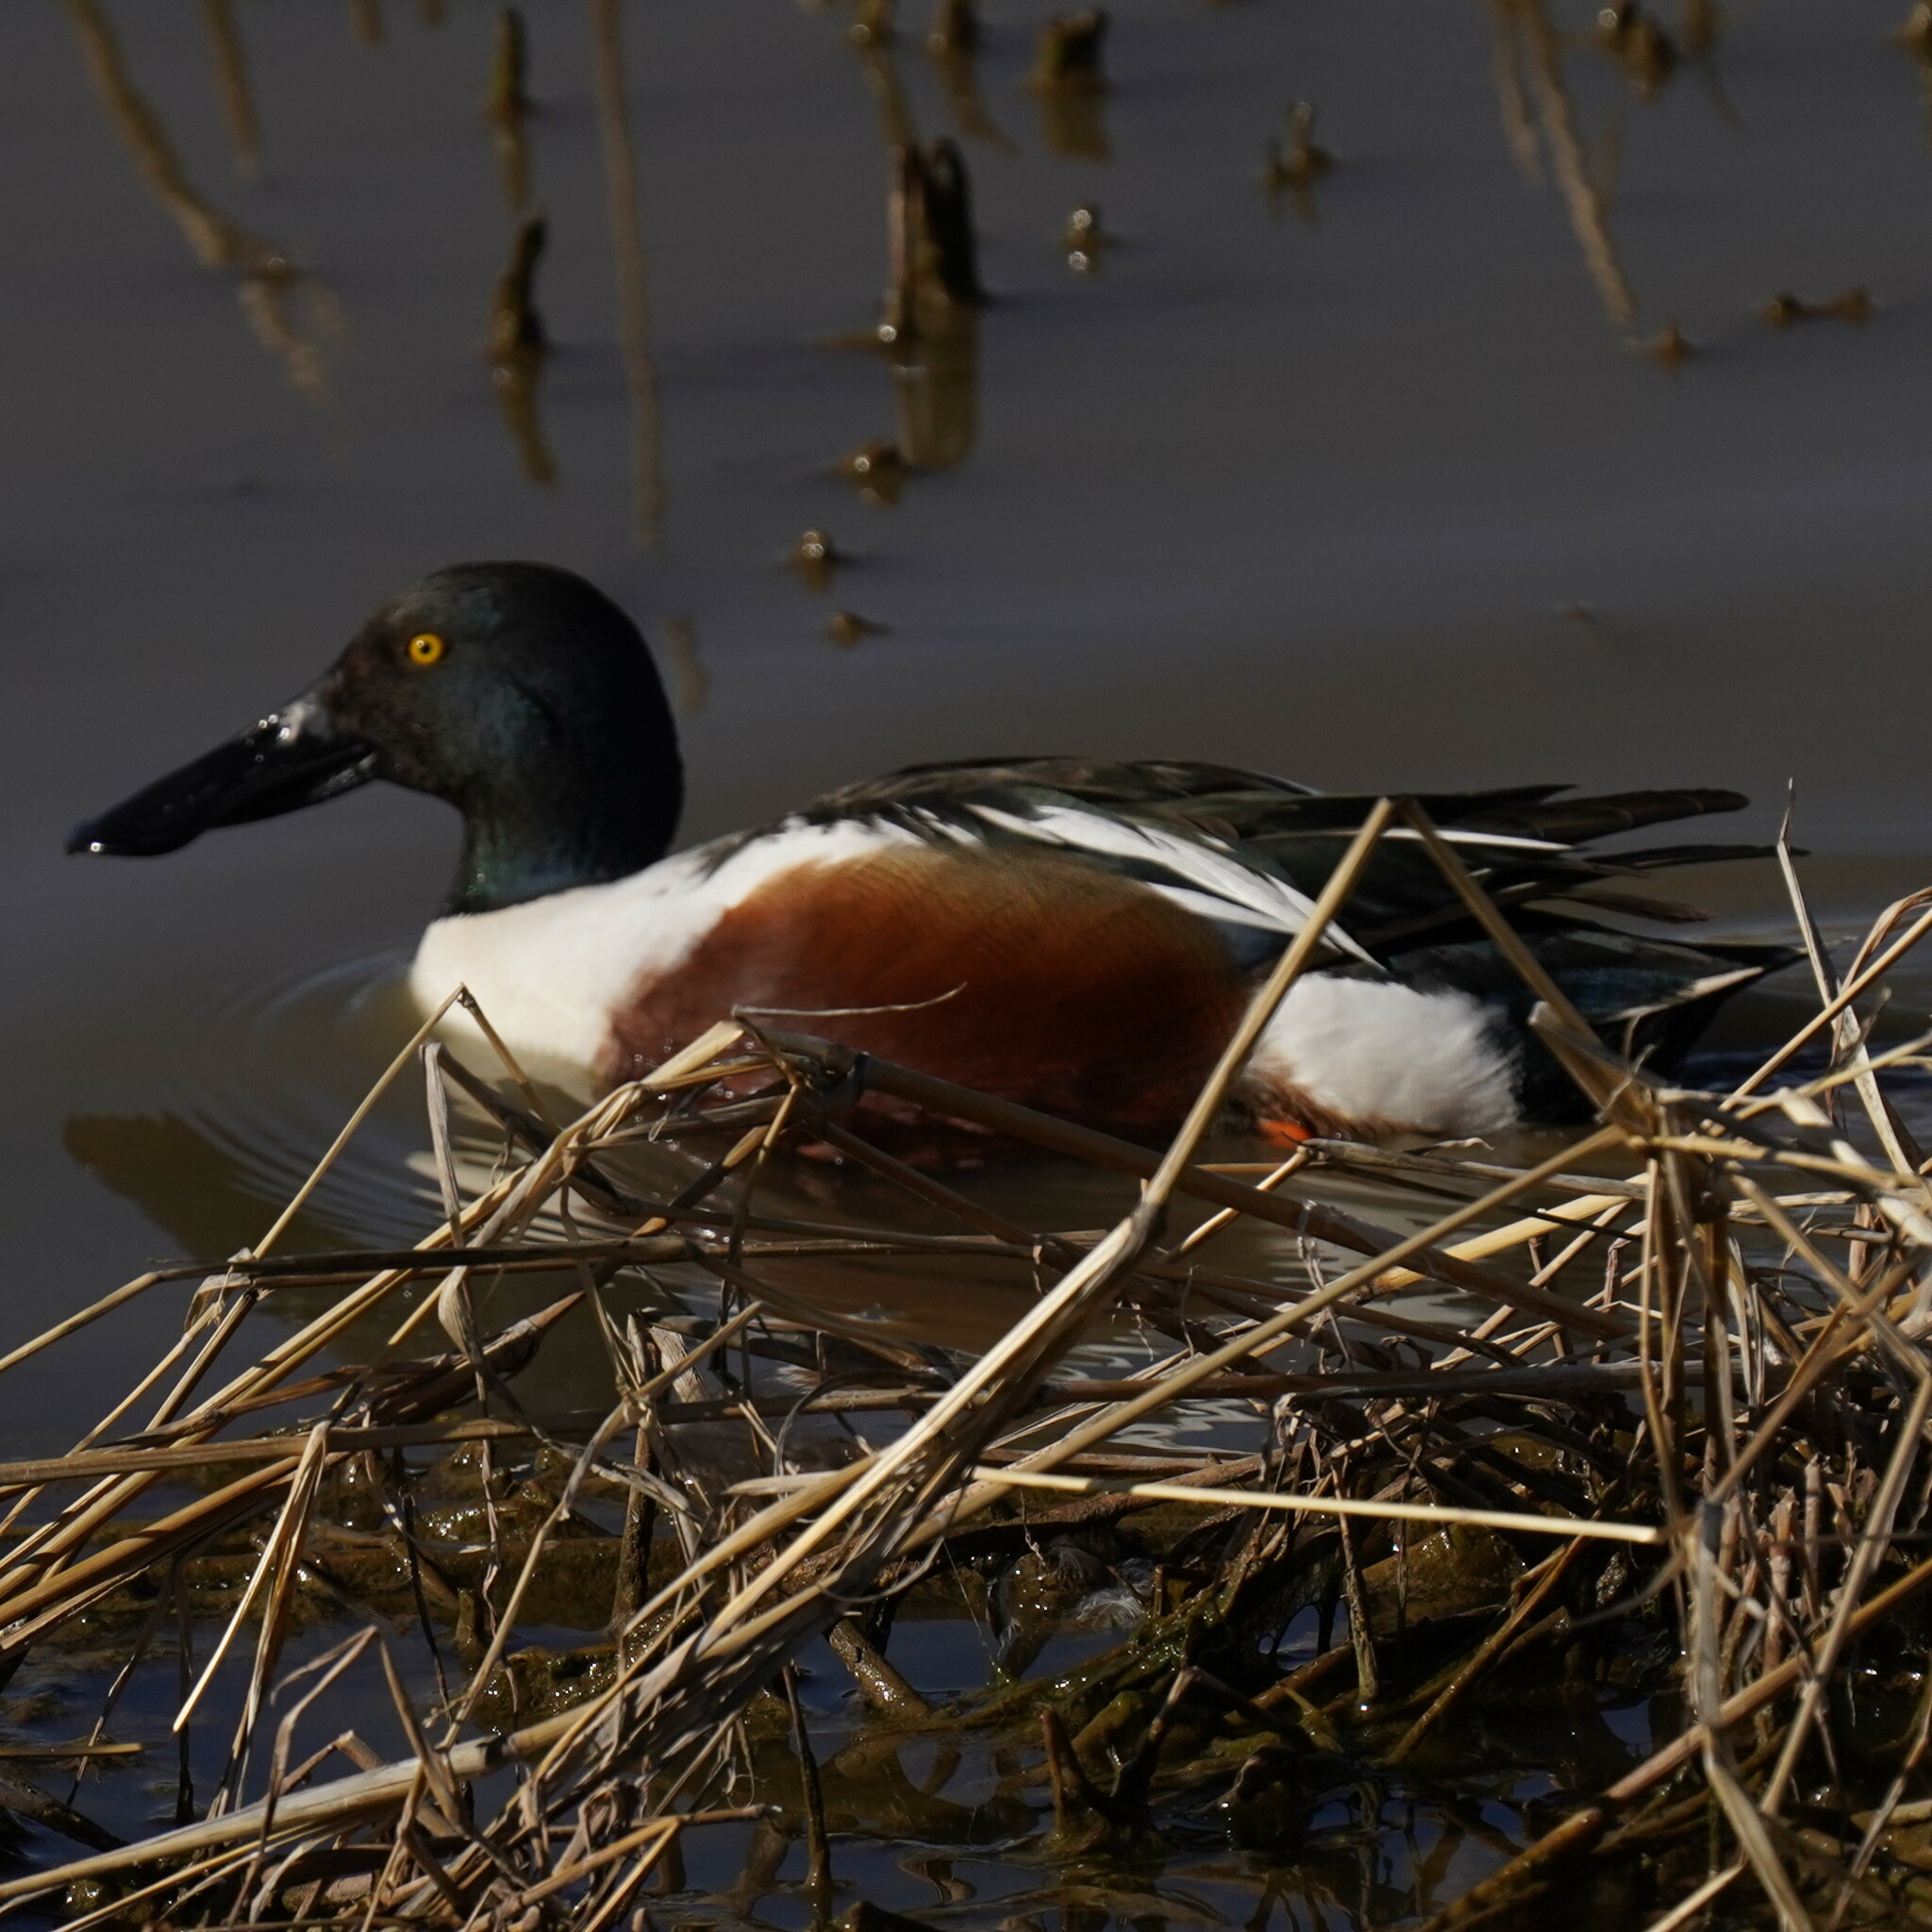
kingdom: Animalia
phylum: Chordata
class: Aves
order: Anseriformes
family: Anatidae
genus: Spatula
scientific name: Spatula clypeata
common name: Northern shoveler
